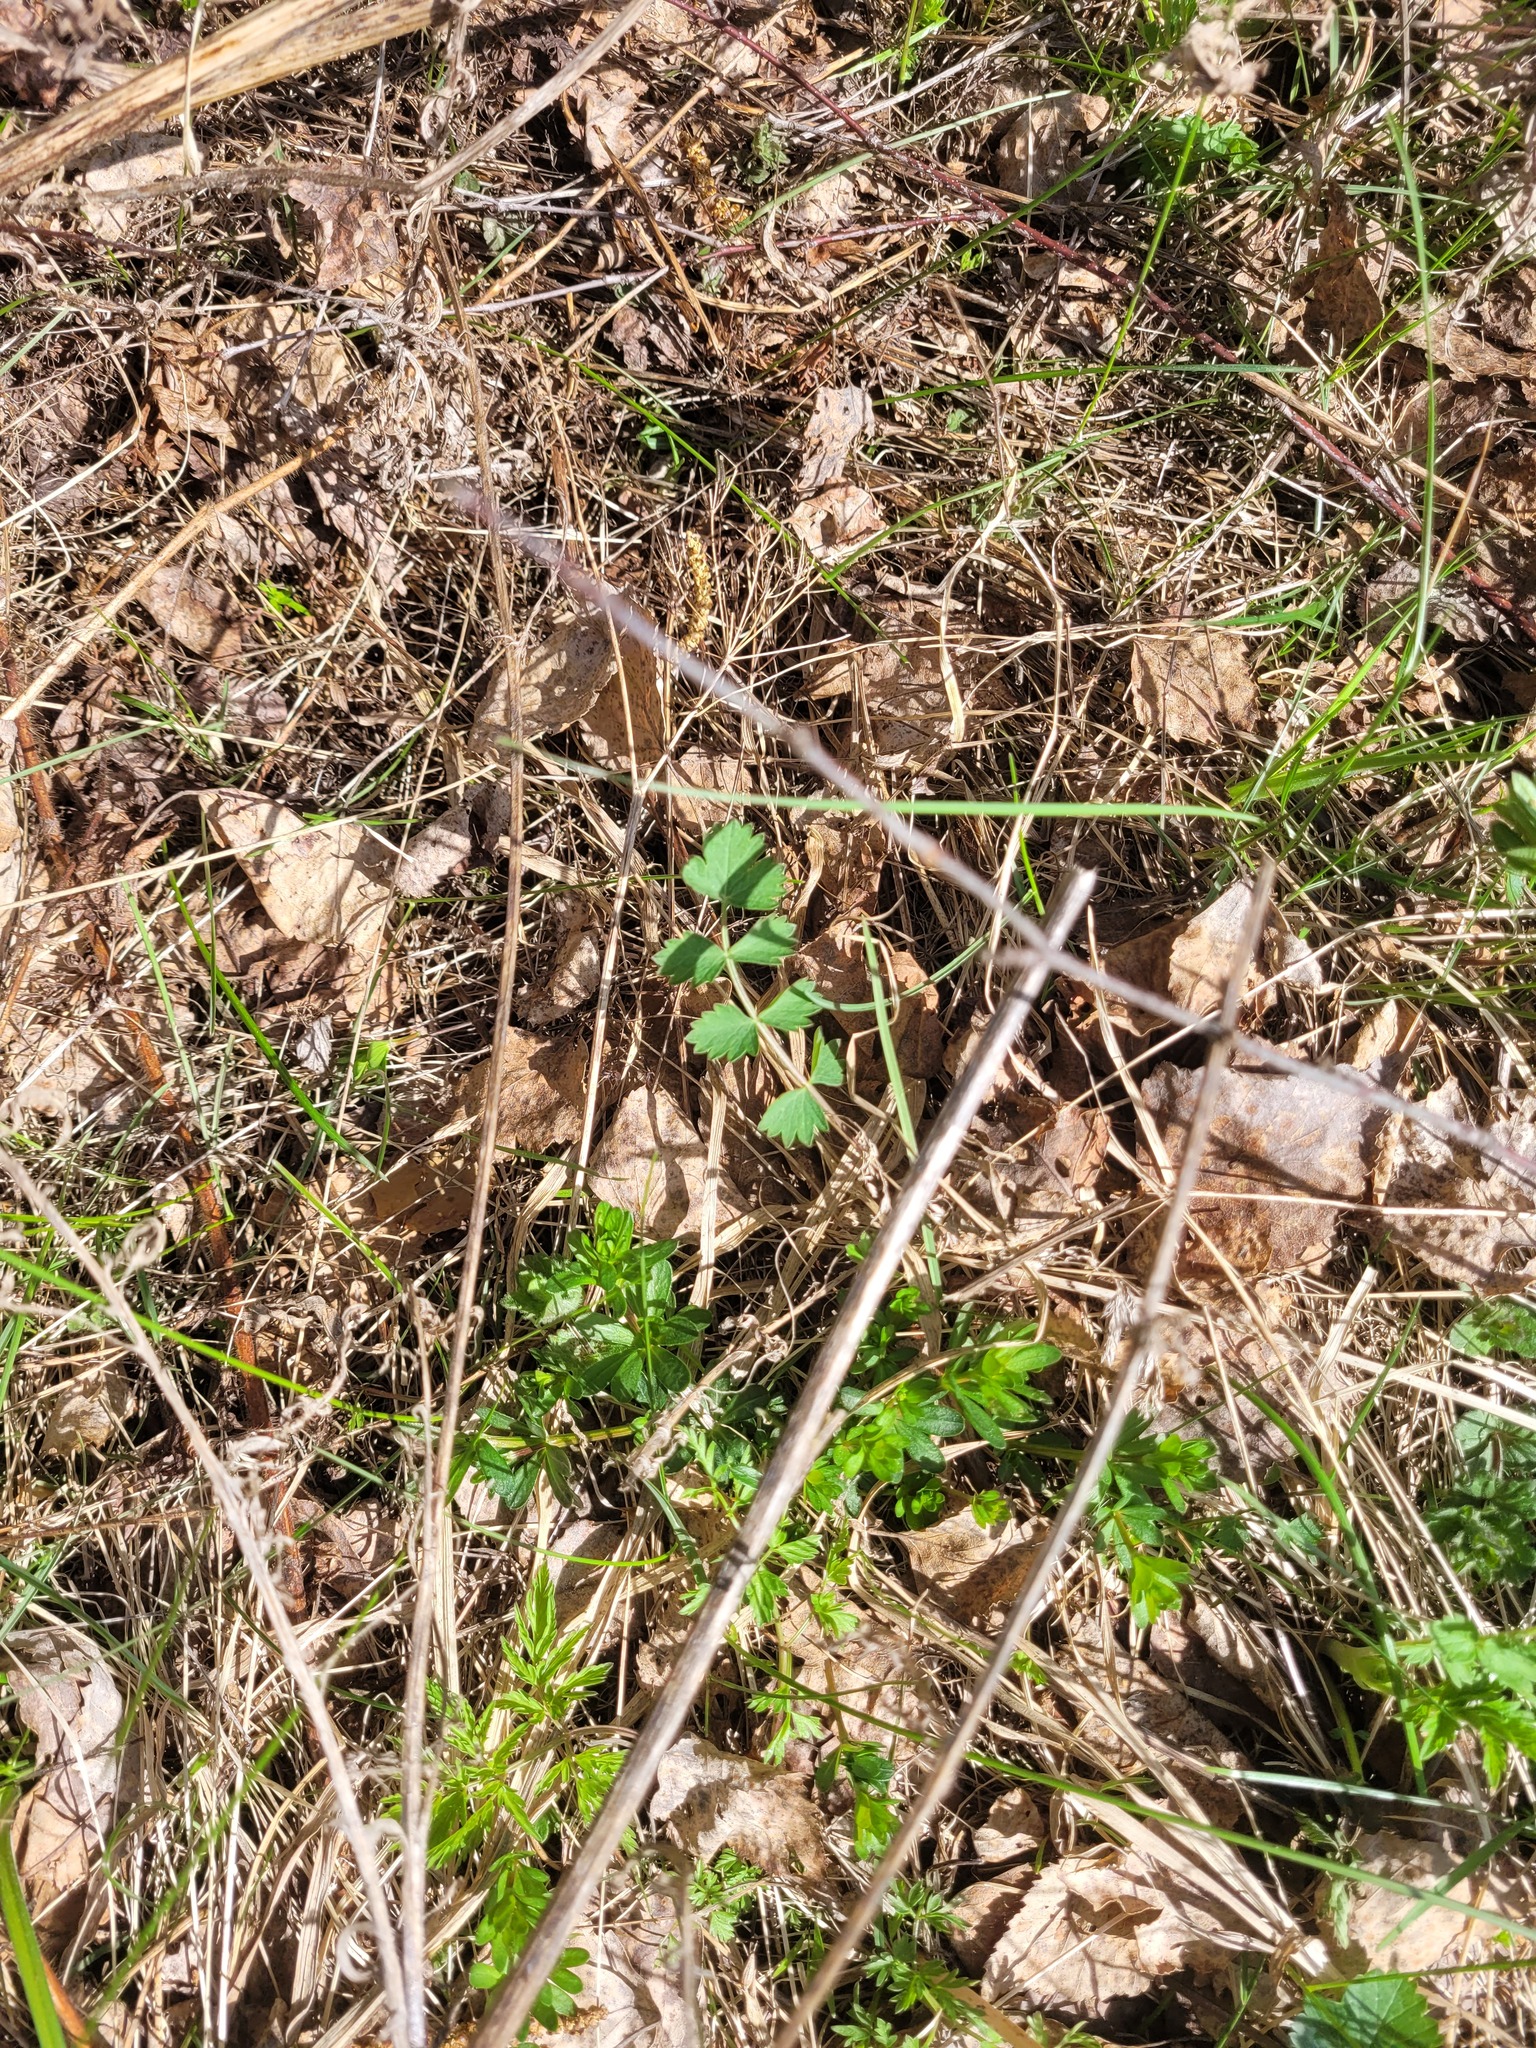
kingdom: Plantae
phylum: Tracheophyta
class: Magnoliopsida
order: Apiales
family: Apiaceae
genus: Pimpinella
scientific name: Pimpinella saxifraga
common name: Burnet-saxifrage
